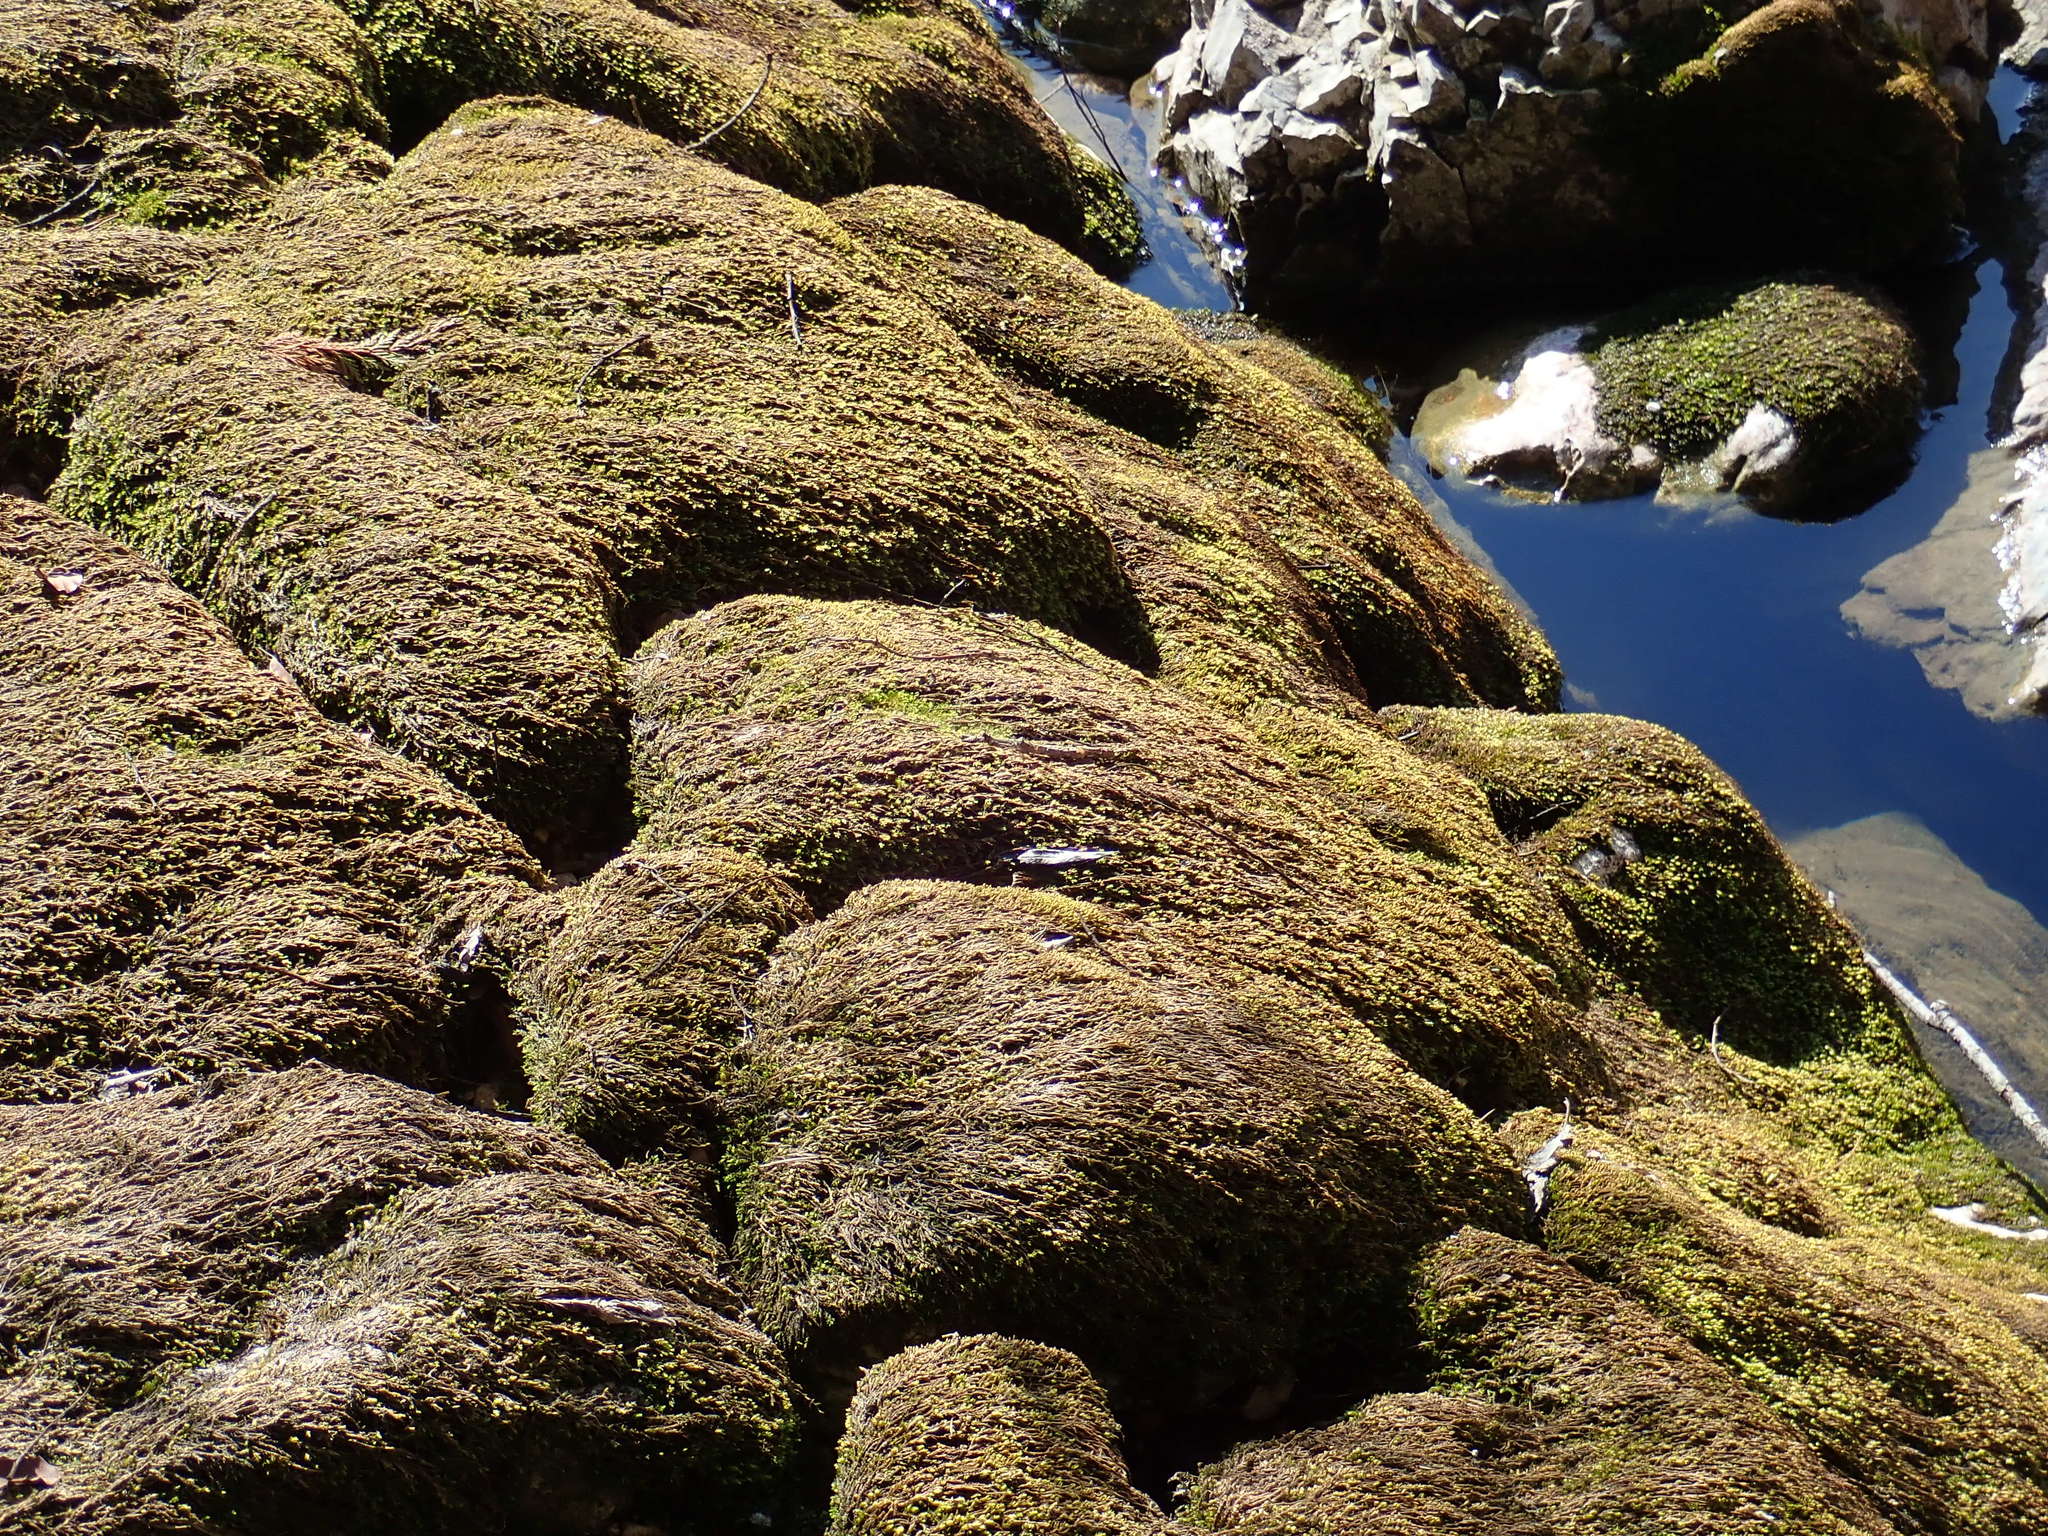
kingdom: Plantae
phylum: Bryophyta
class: Bryopsida
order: Hypnales
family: Brachytheciaceae
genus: Rhynchostegium
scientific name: Rhynchostegium riparioides
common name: Platyhypnidium moss
